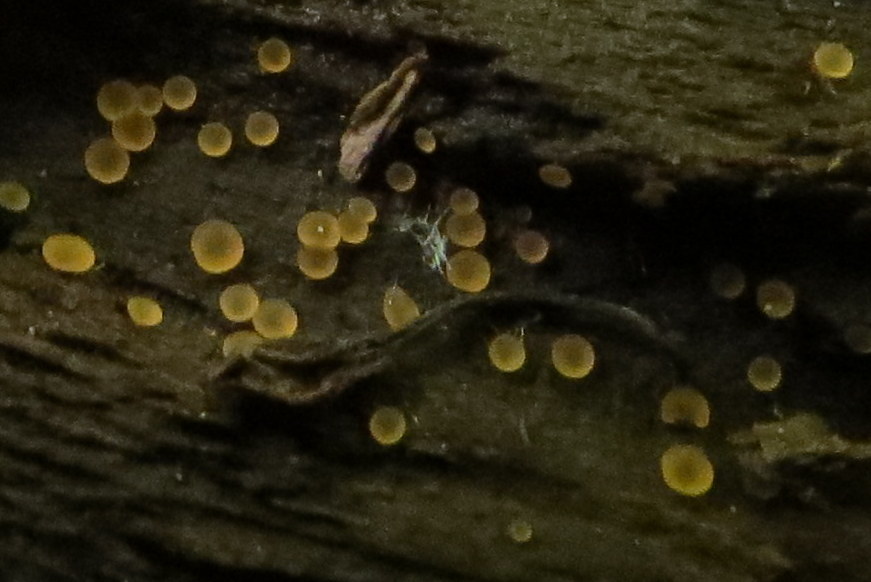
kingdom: Fungi
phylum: Ascomycota
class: Orbiliomycetes
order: Orbiliales
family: Orbiliaceae
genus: Orbilia
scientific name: Orbilia
